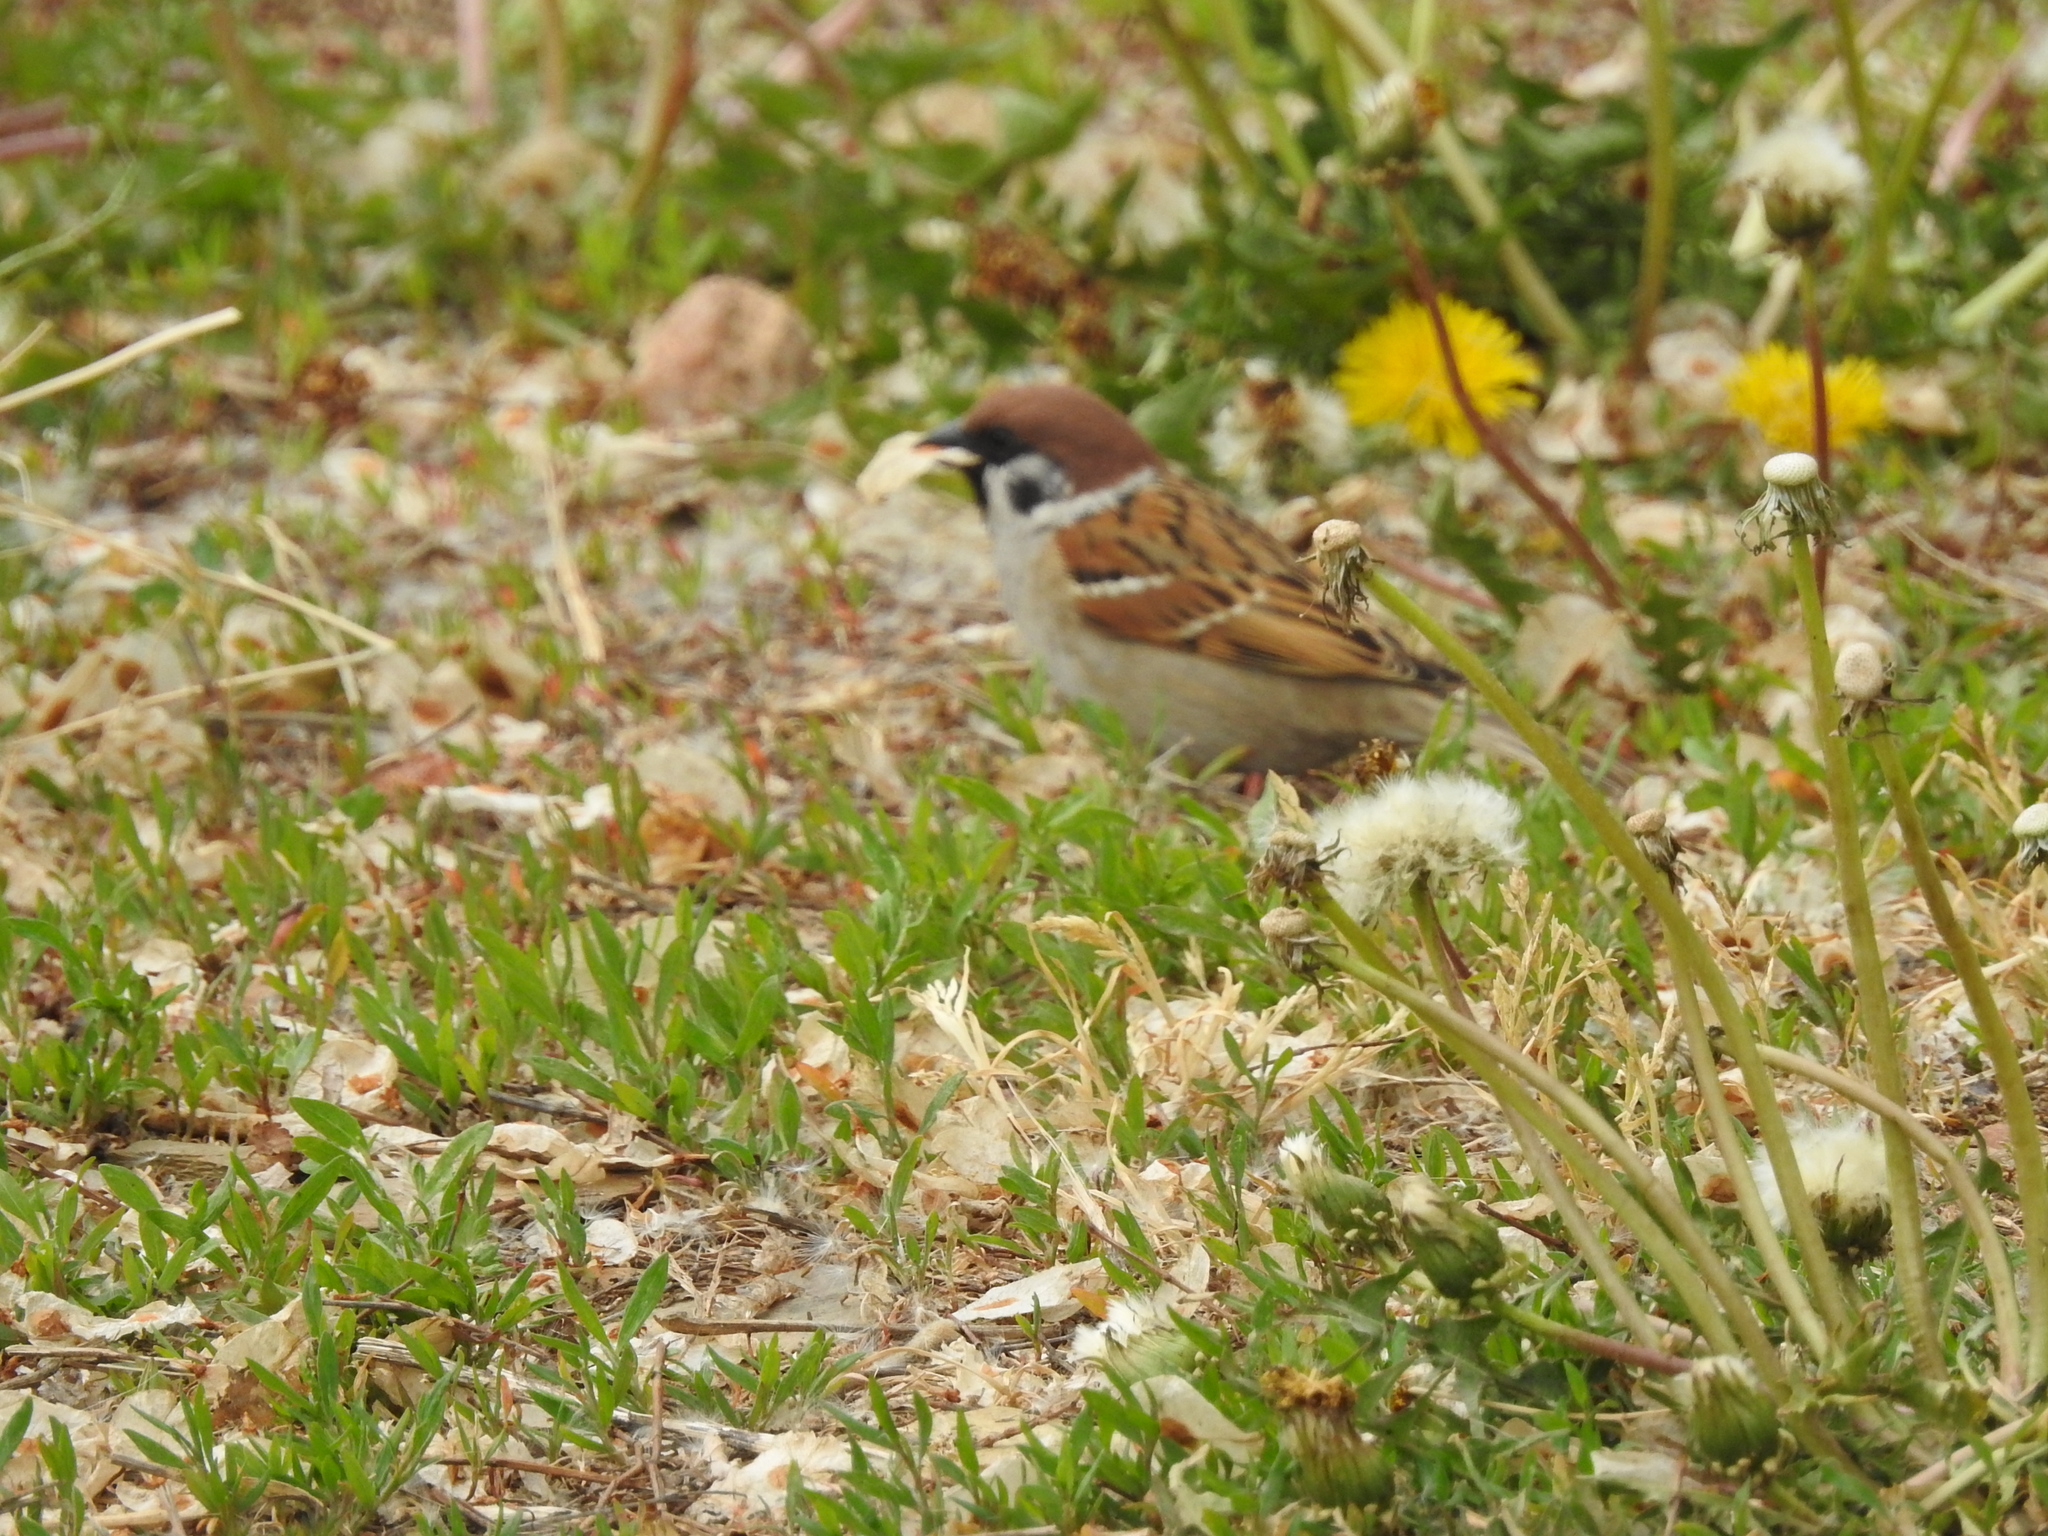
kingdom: Animalia
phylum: Chordata
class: Aves
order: Passeriformes
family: Passeridae
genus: Passer
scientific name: Passer montanus
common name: Eurasian tree sparrow
